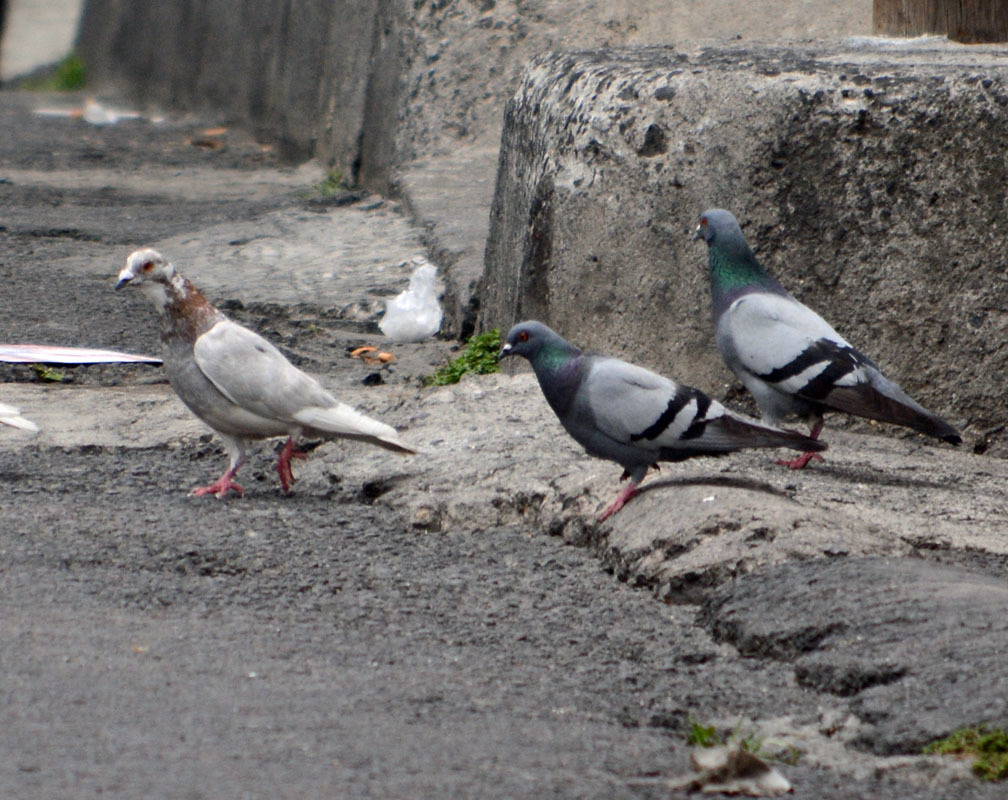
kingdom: Animalia
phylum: Chordata
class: Aves
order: Columbiformes
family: Columbidae
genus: Columba
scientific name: Columba livia
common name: Rock pigeon
